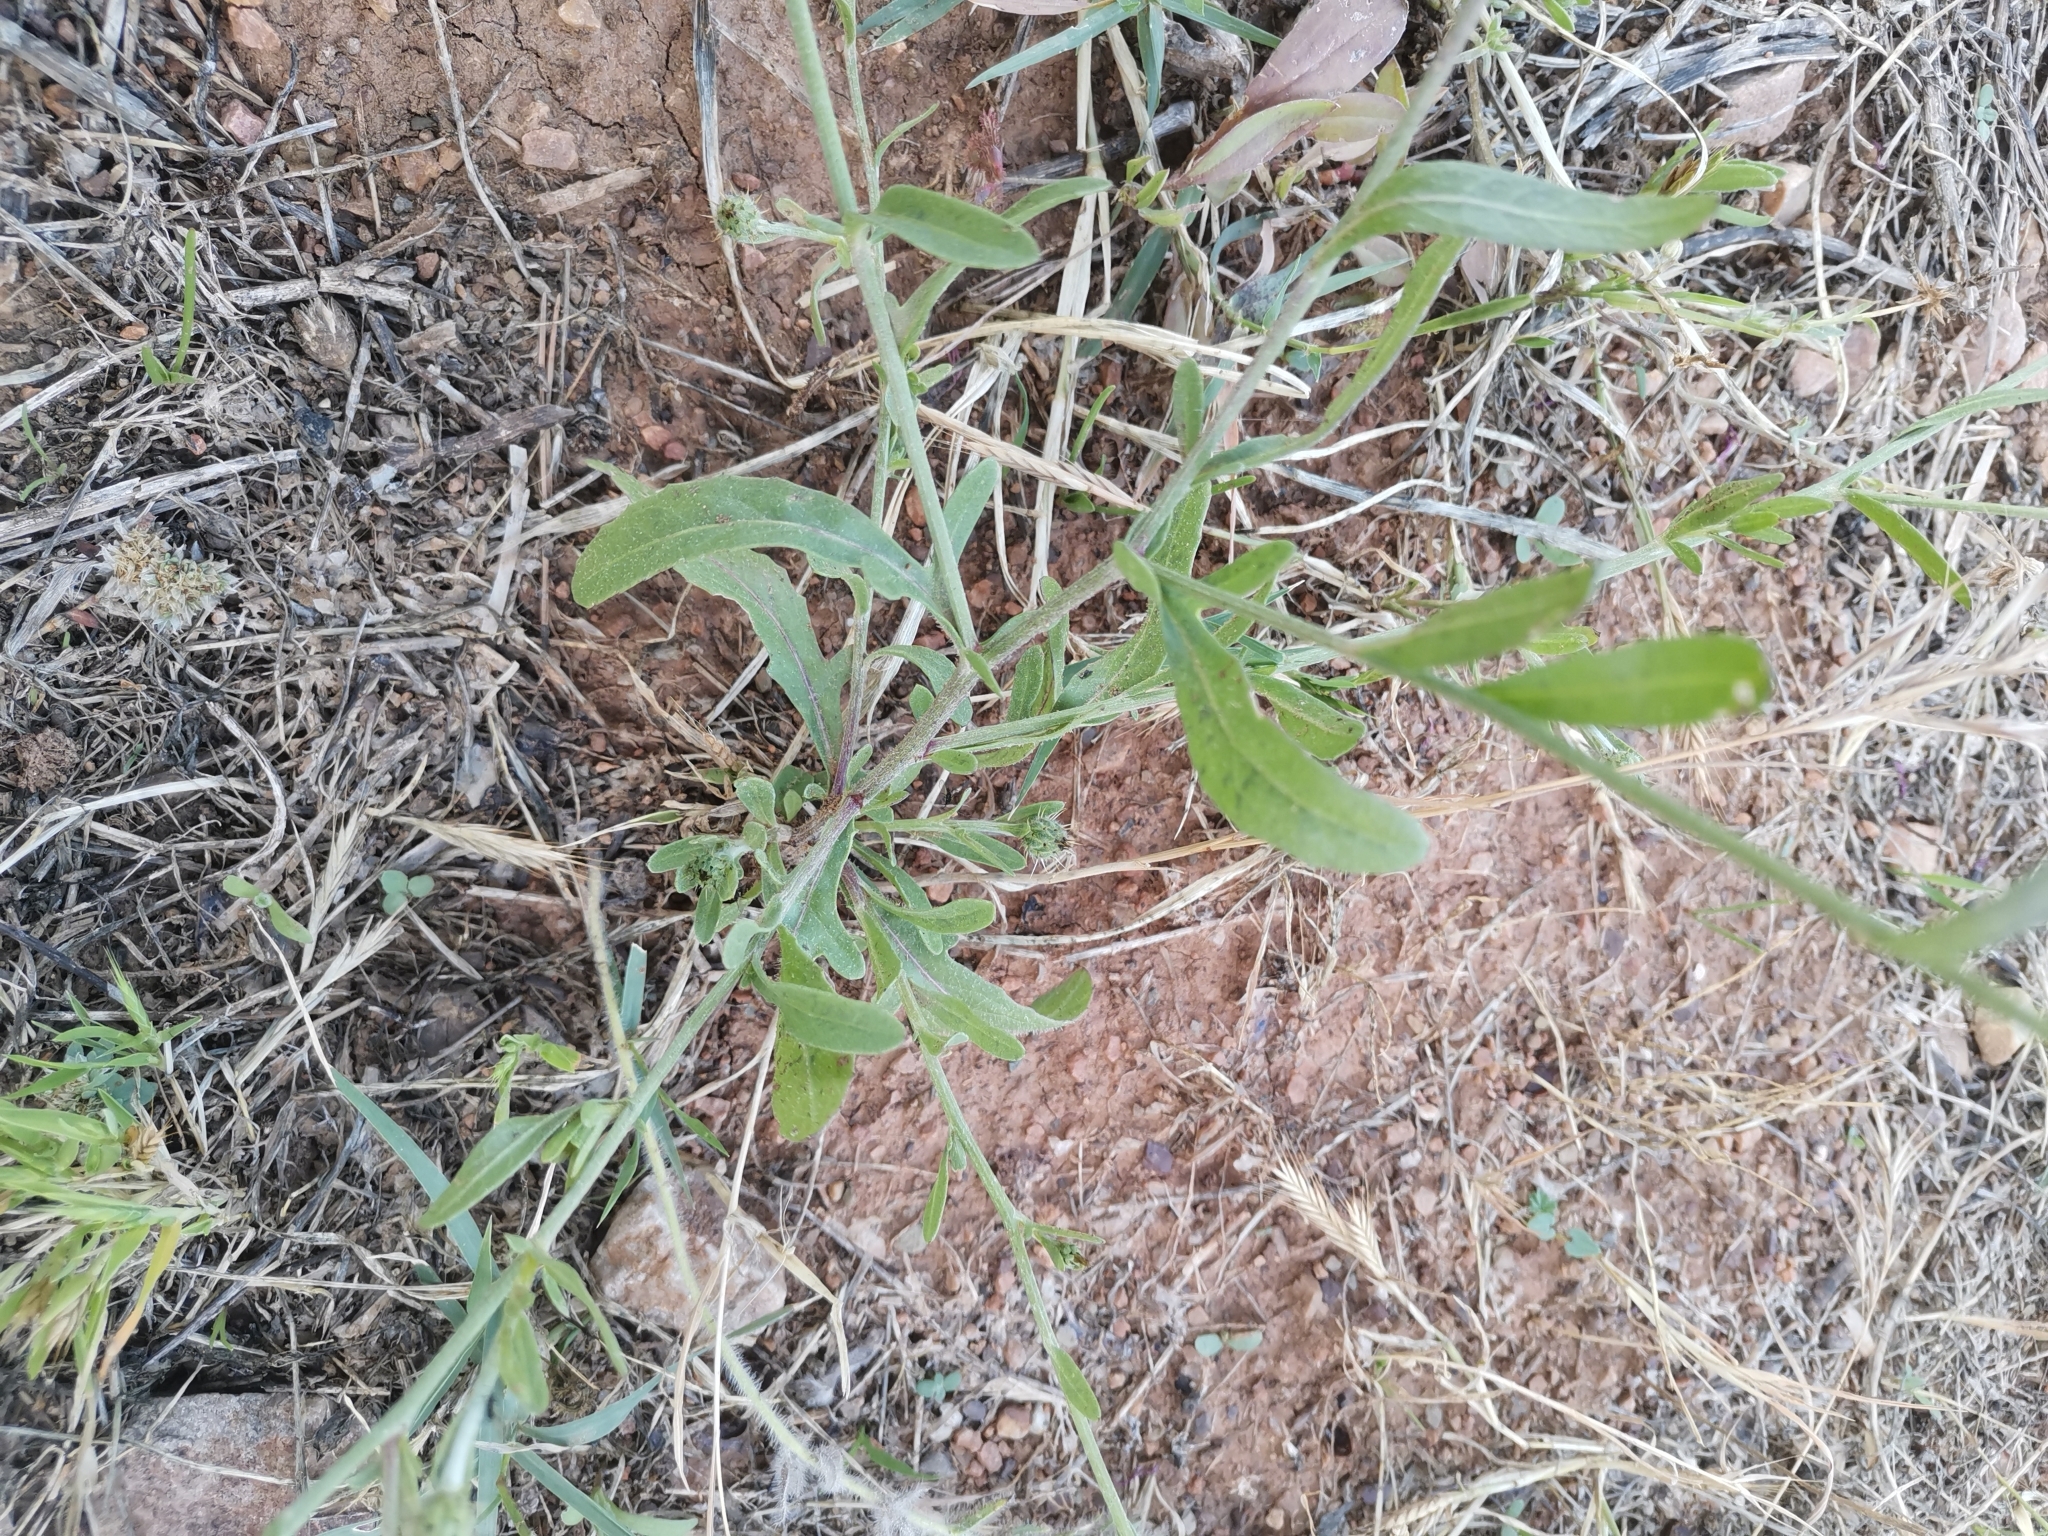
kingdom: Plantae
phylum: Tracheophyta
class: Magnoliopsida
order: Asterales
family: Asteraceae
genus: Volutaria
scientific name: Volutaria muricata
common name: Morocco knapweed
